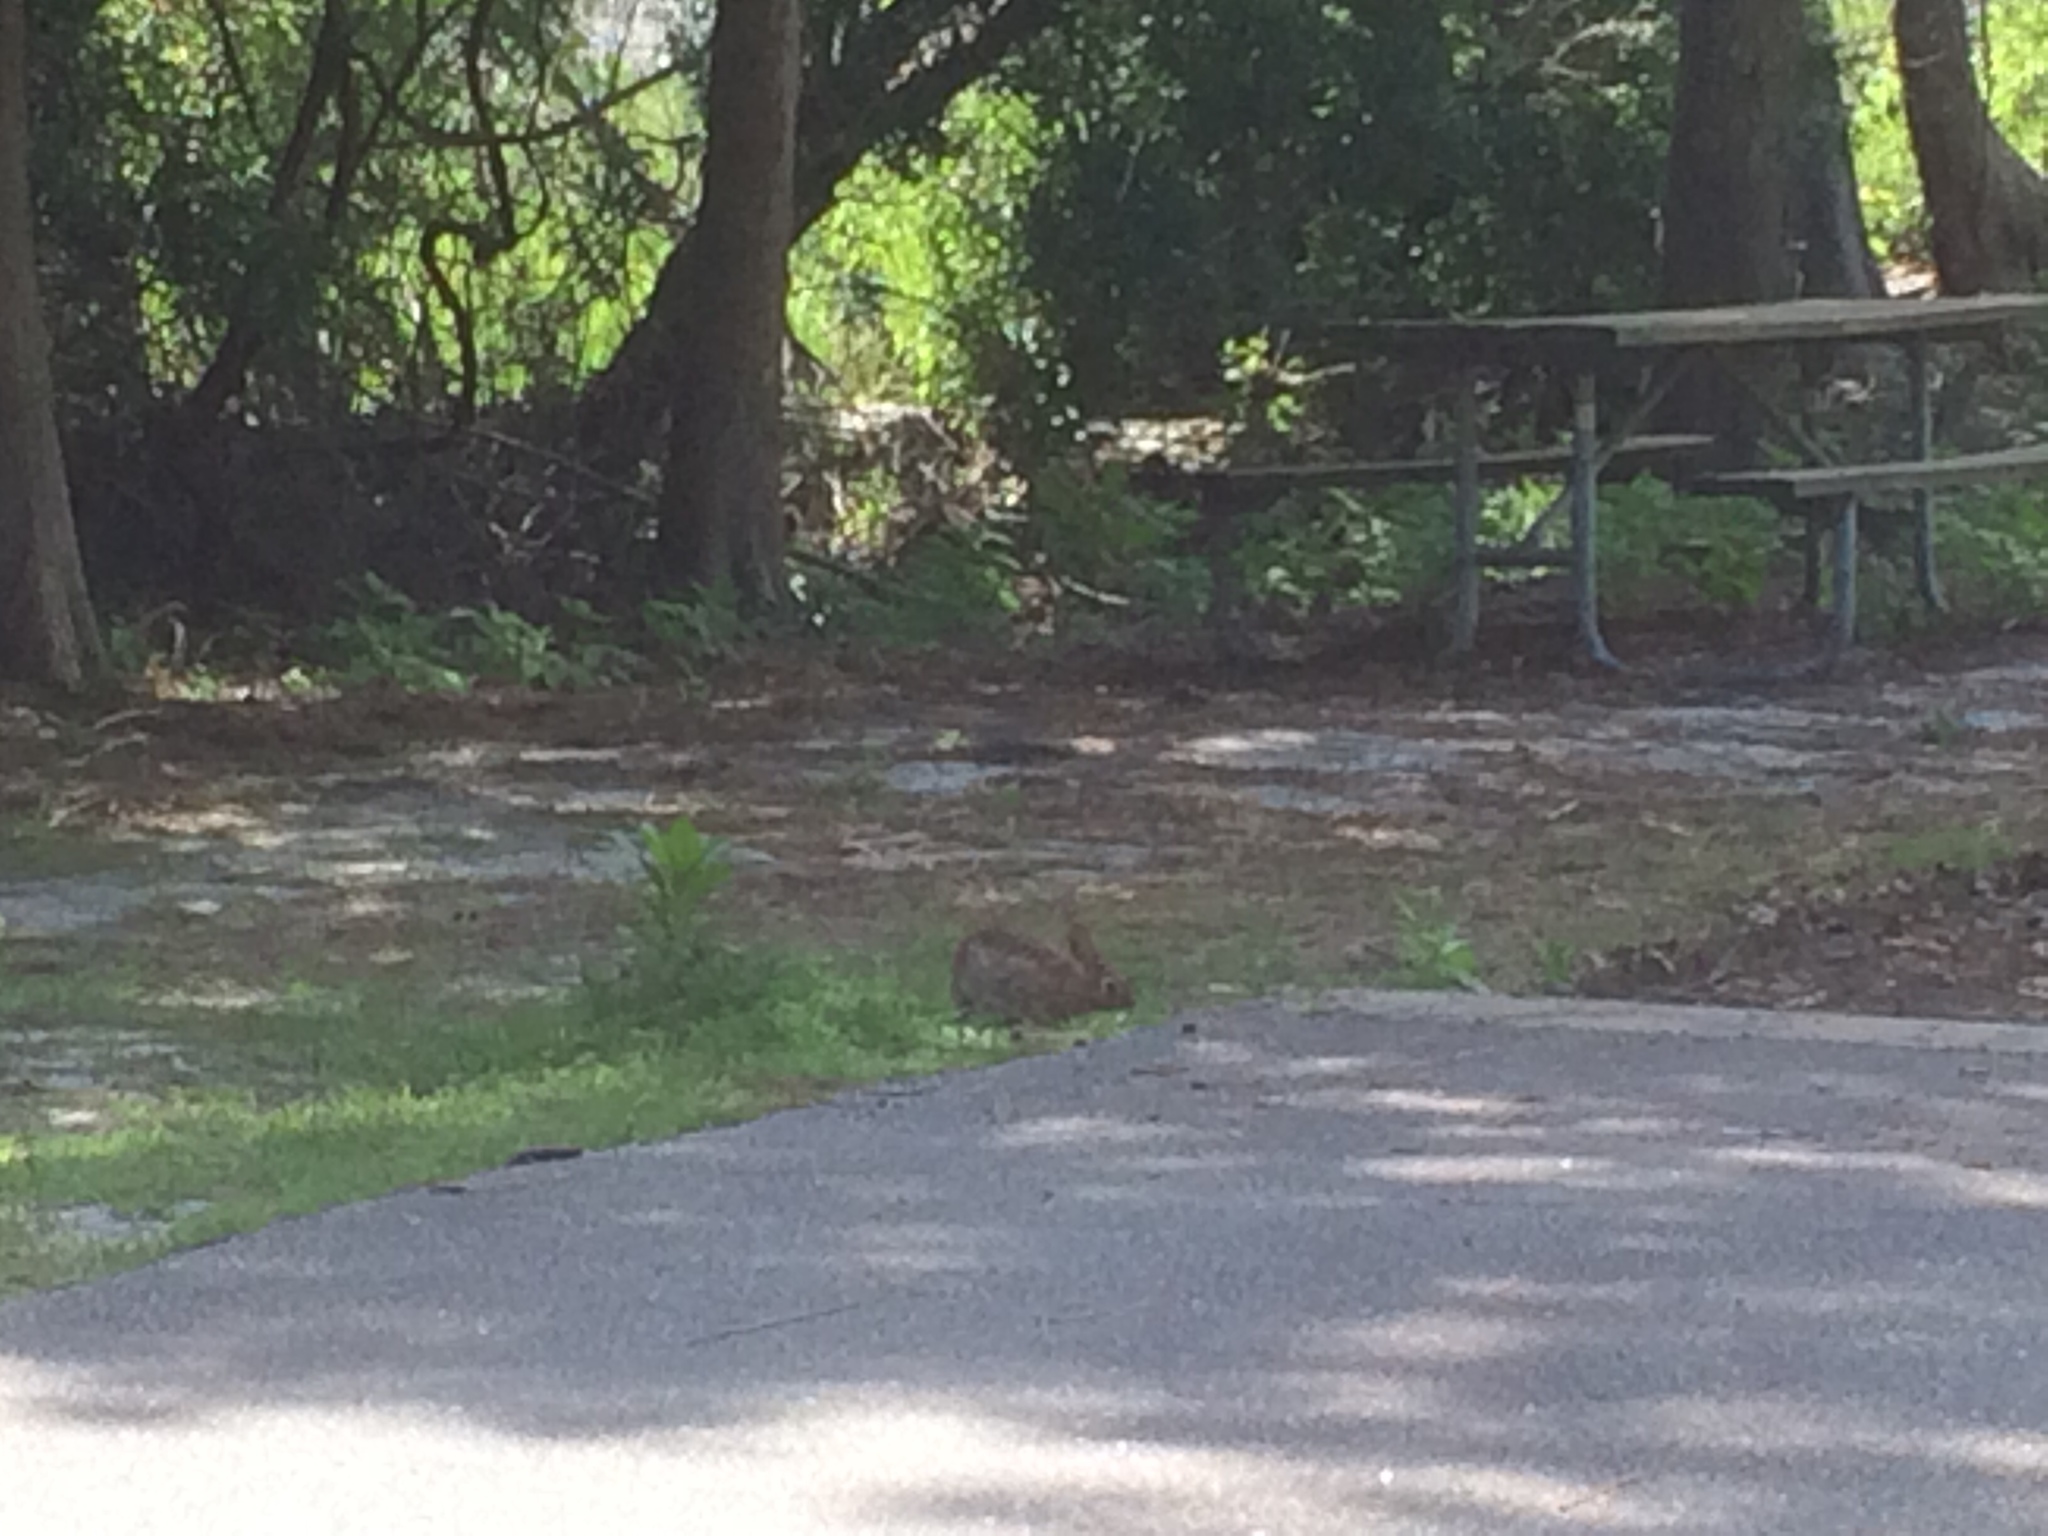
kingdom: Animalia
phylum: Chordata
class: Mammalia
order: Lagomorpha
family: Leporidae
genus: Sylvilagus
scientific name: Sylvilagus floridanus
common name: Eastern cottontail
